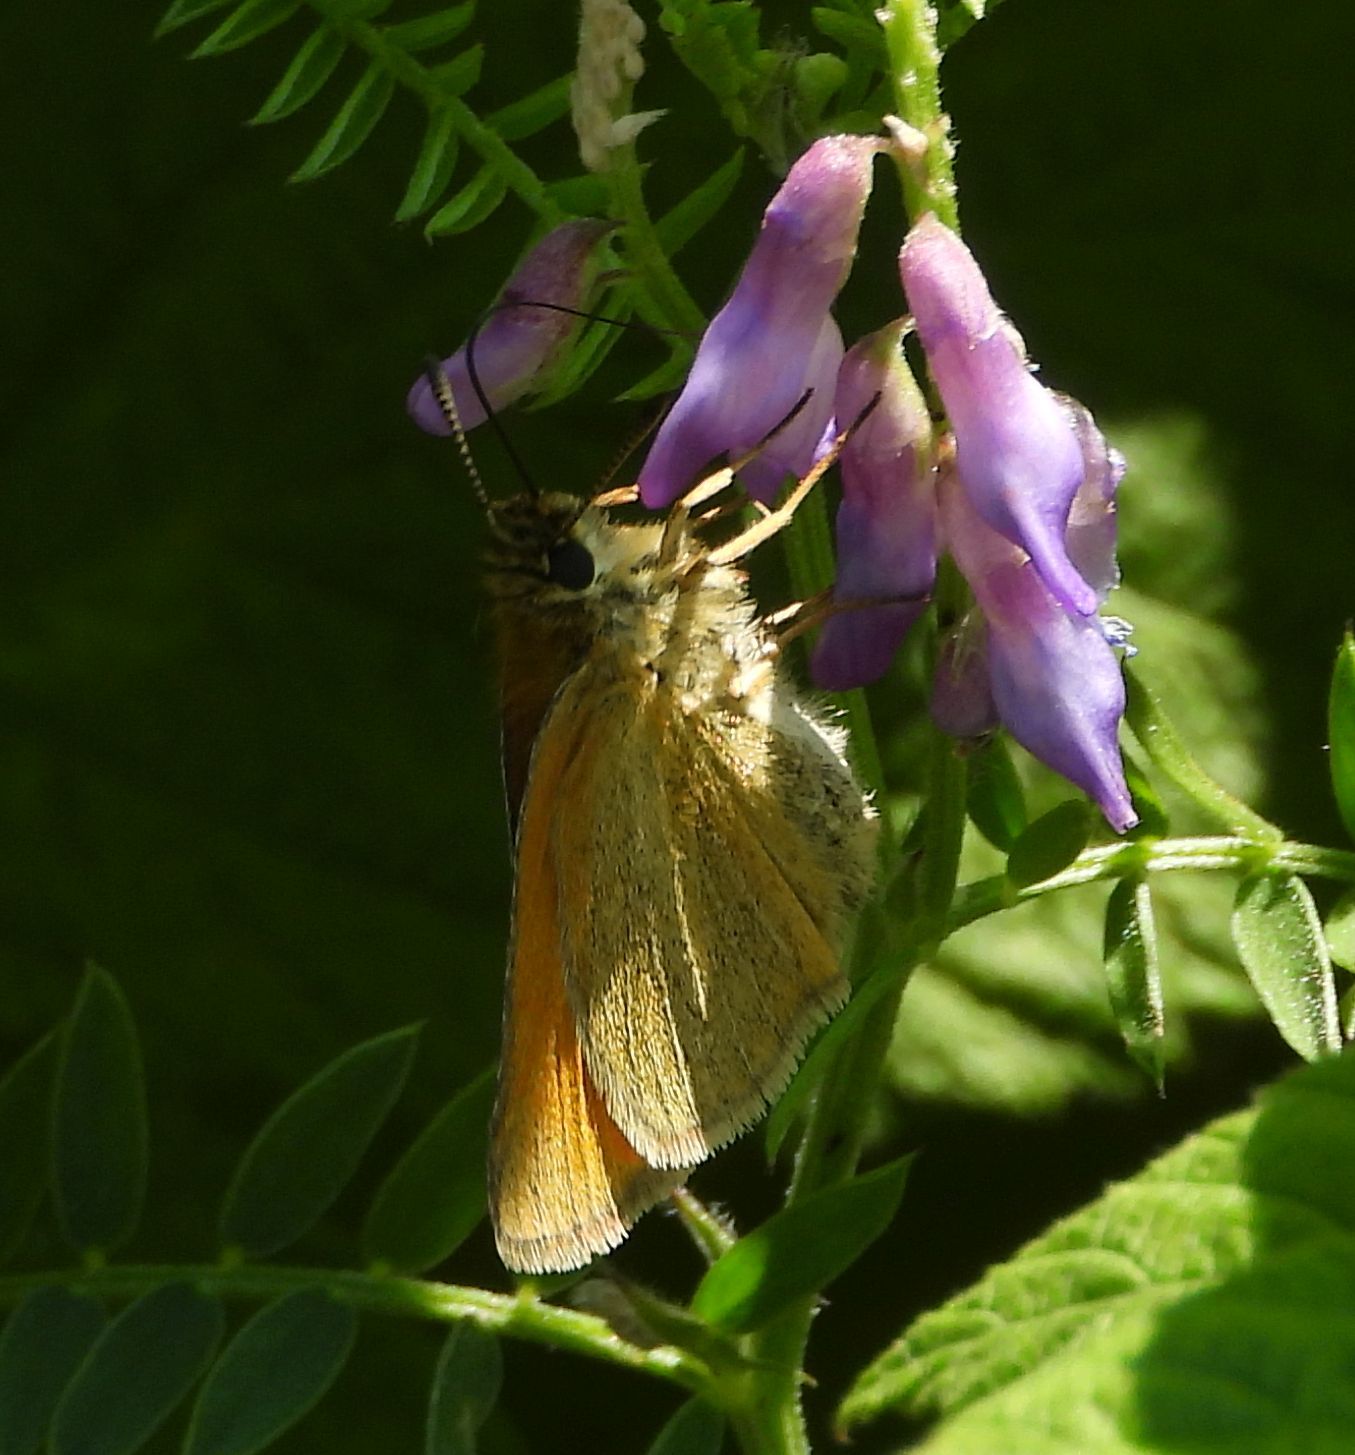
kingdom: Animalia
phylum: Arthropoda
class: Insecta
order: Lepidoptera
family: Hesperiidae
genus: Thymelicus
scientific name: Thymelicus lineola
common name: Essex skipper
